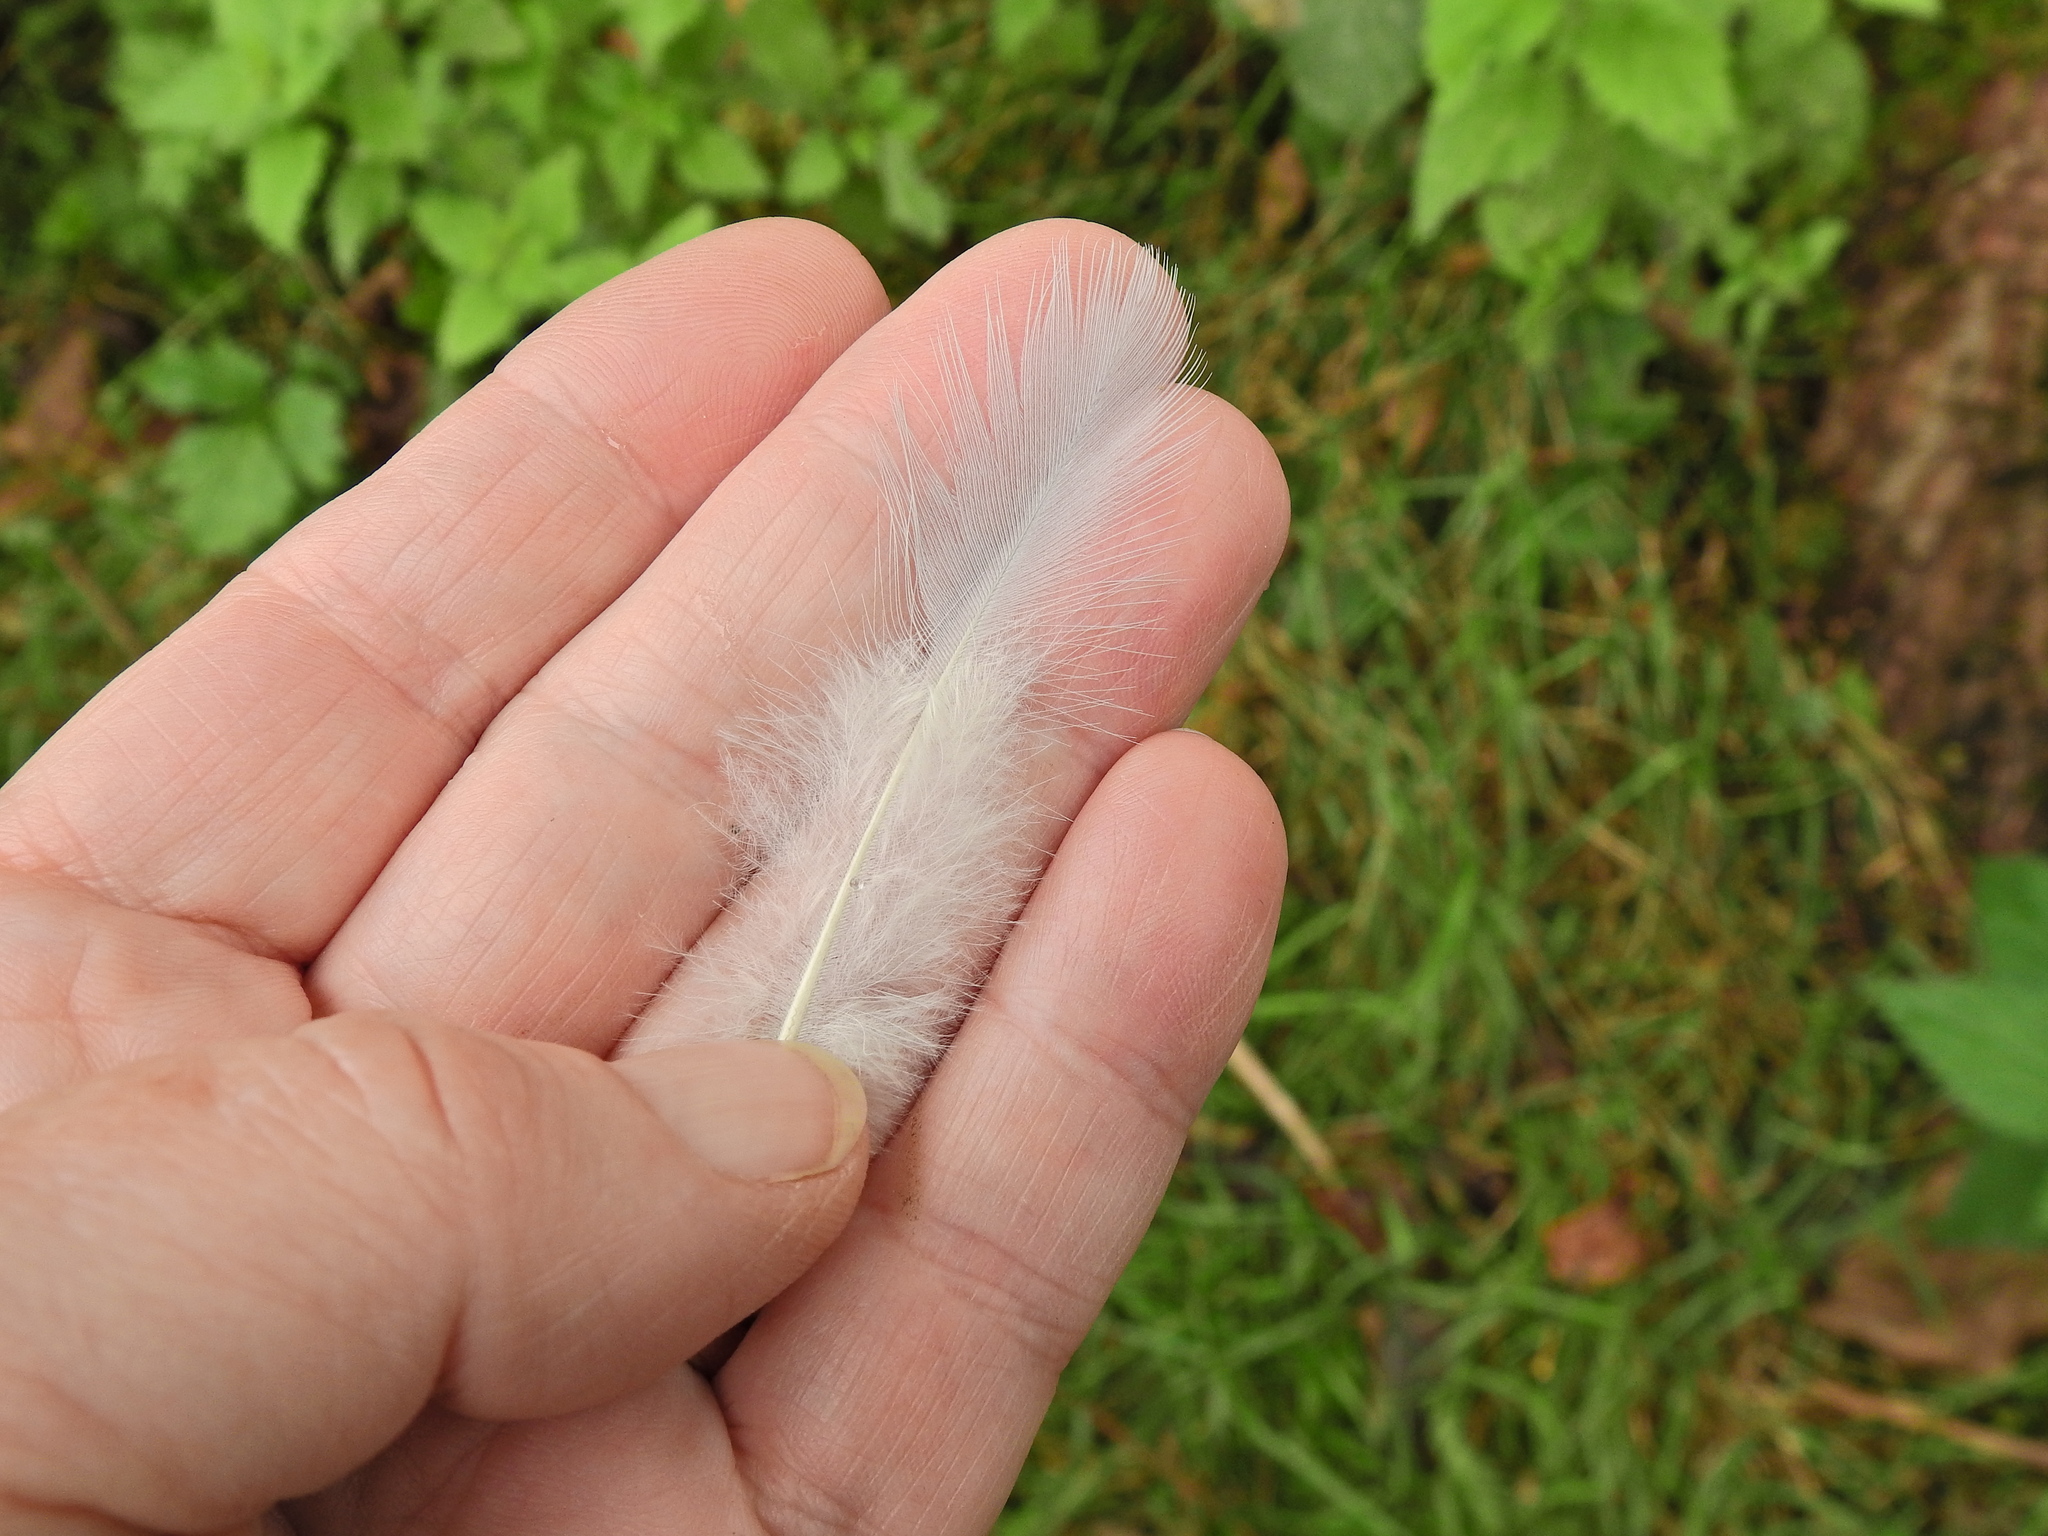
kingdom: Animalia
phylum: Chordata
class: Aves
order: Columbiformes
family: Columbidae
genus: Columba
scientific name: Columba palumbus
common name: Common wood pigeon
